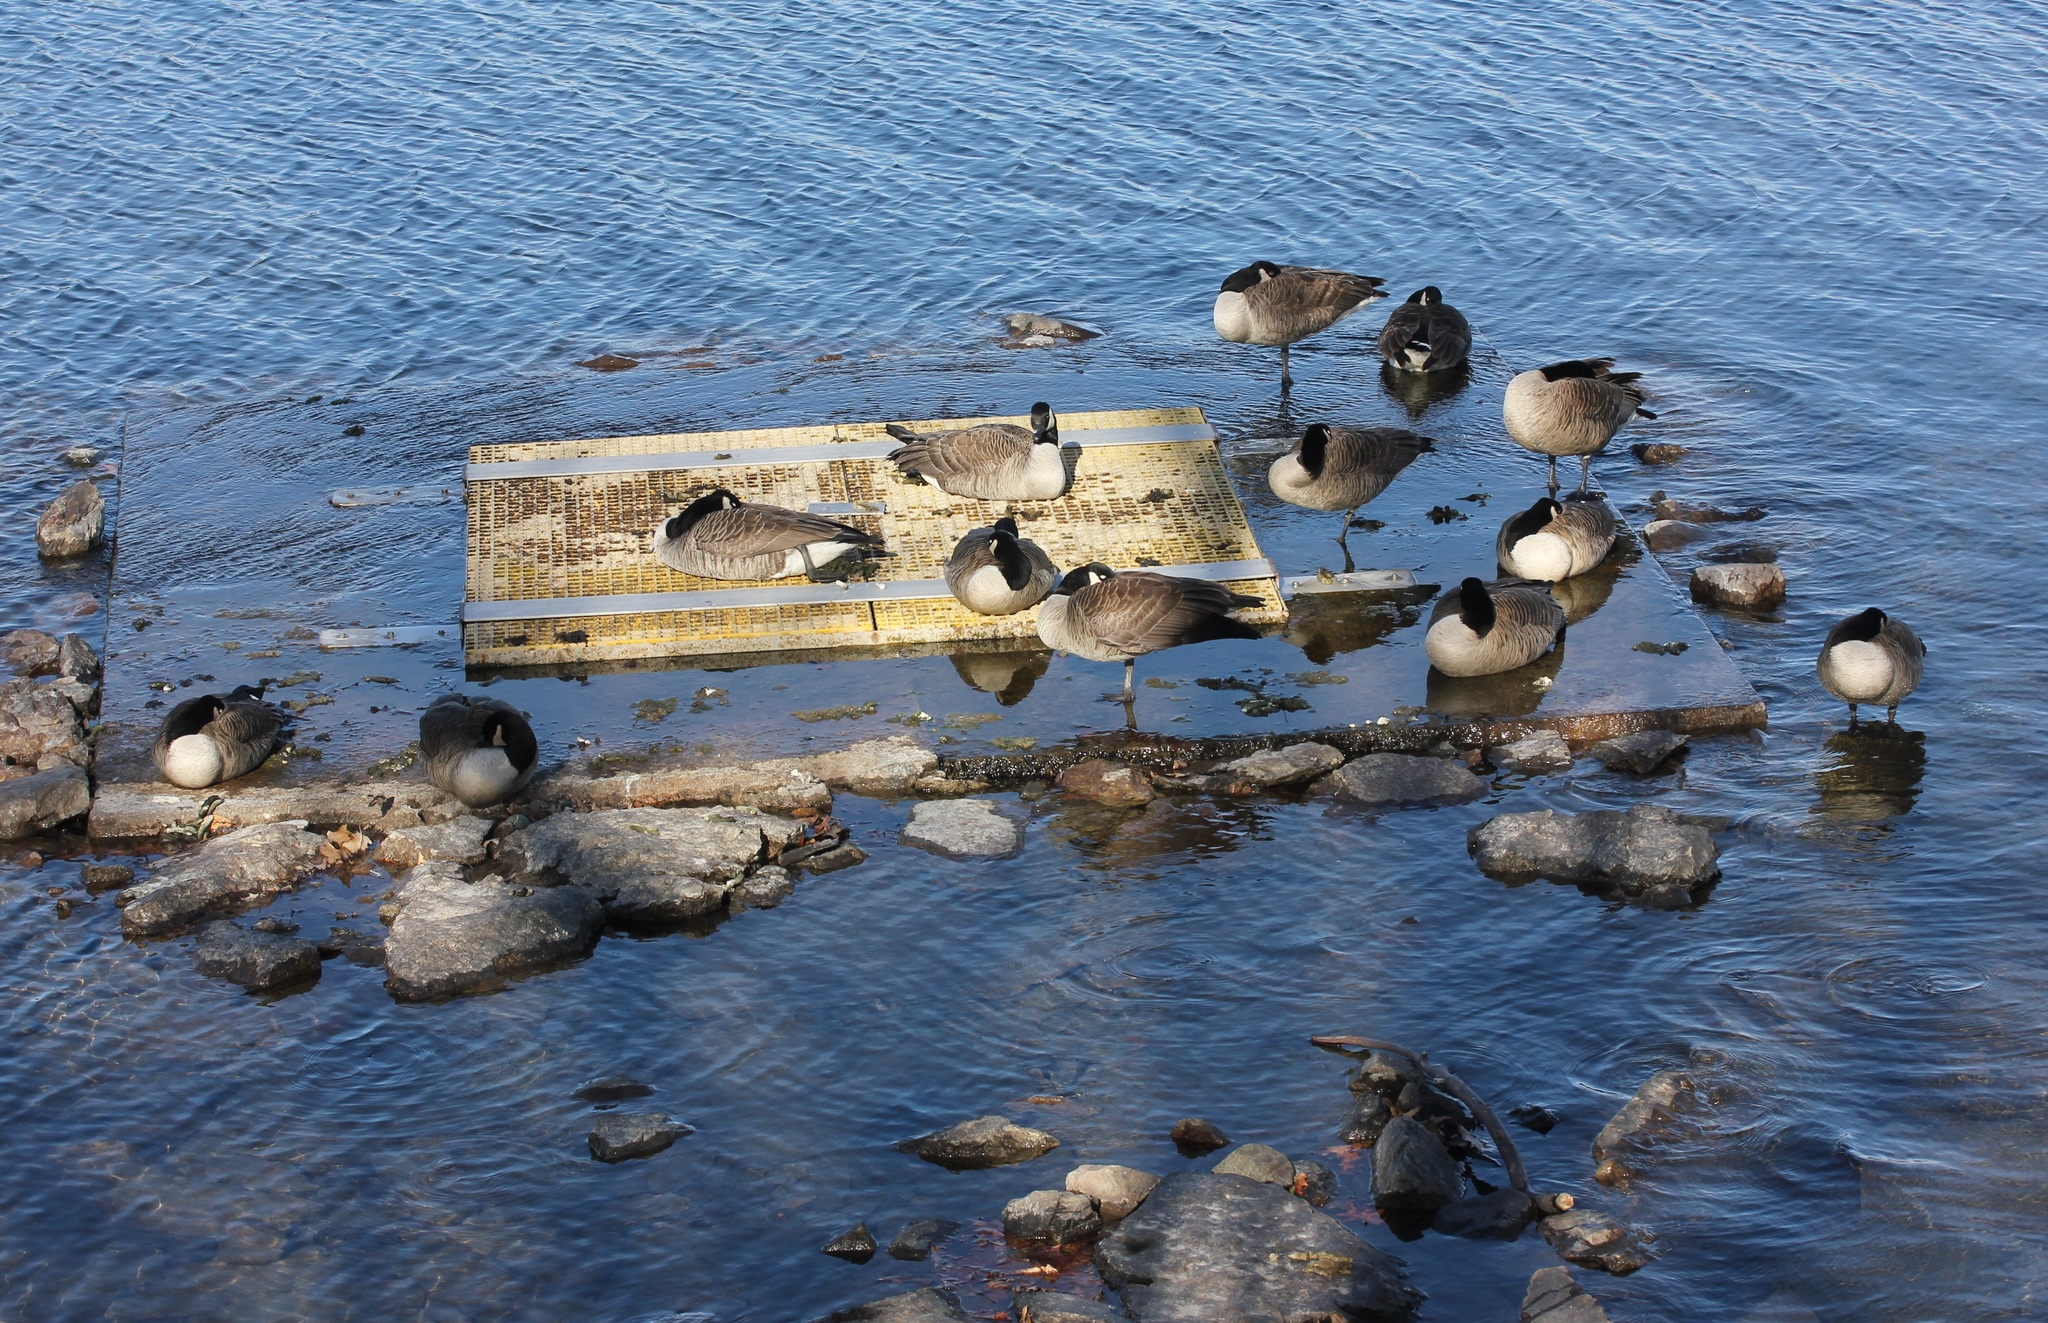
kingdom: Animalia
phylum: Chordata
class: Aves
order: Anseriformes
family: Anatidae
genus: Branta
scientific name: Branta canadensis
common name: Canada goose
